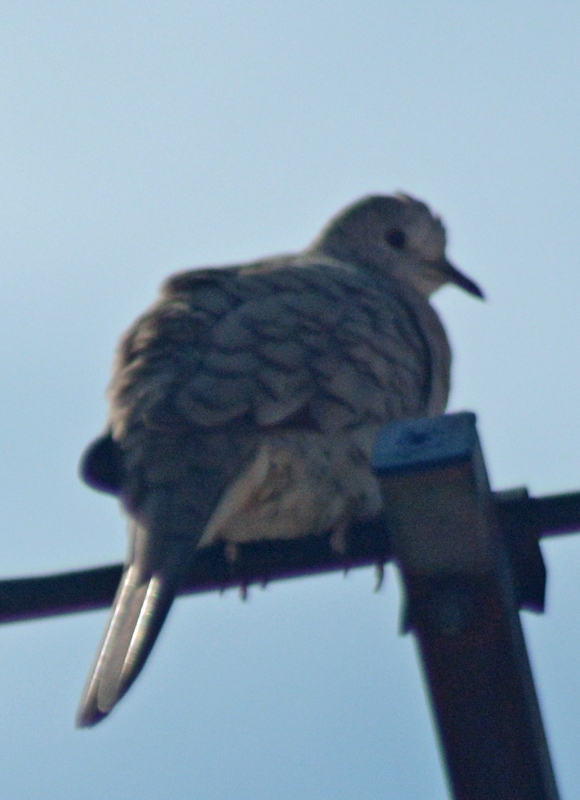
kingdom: Animalia
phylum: Chordata
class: Aves
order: Columbiformes
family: Columbidae
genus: Columbina
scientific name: Columbina inca
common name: Inca dove
